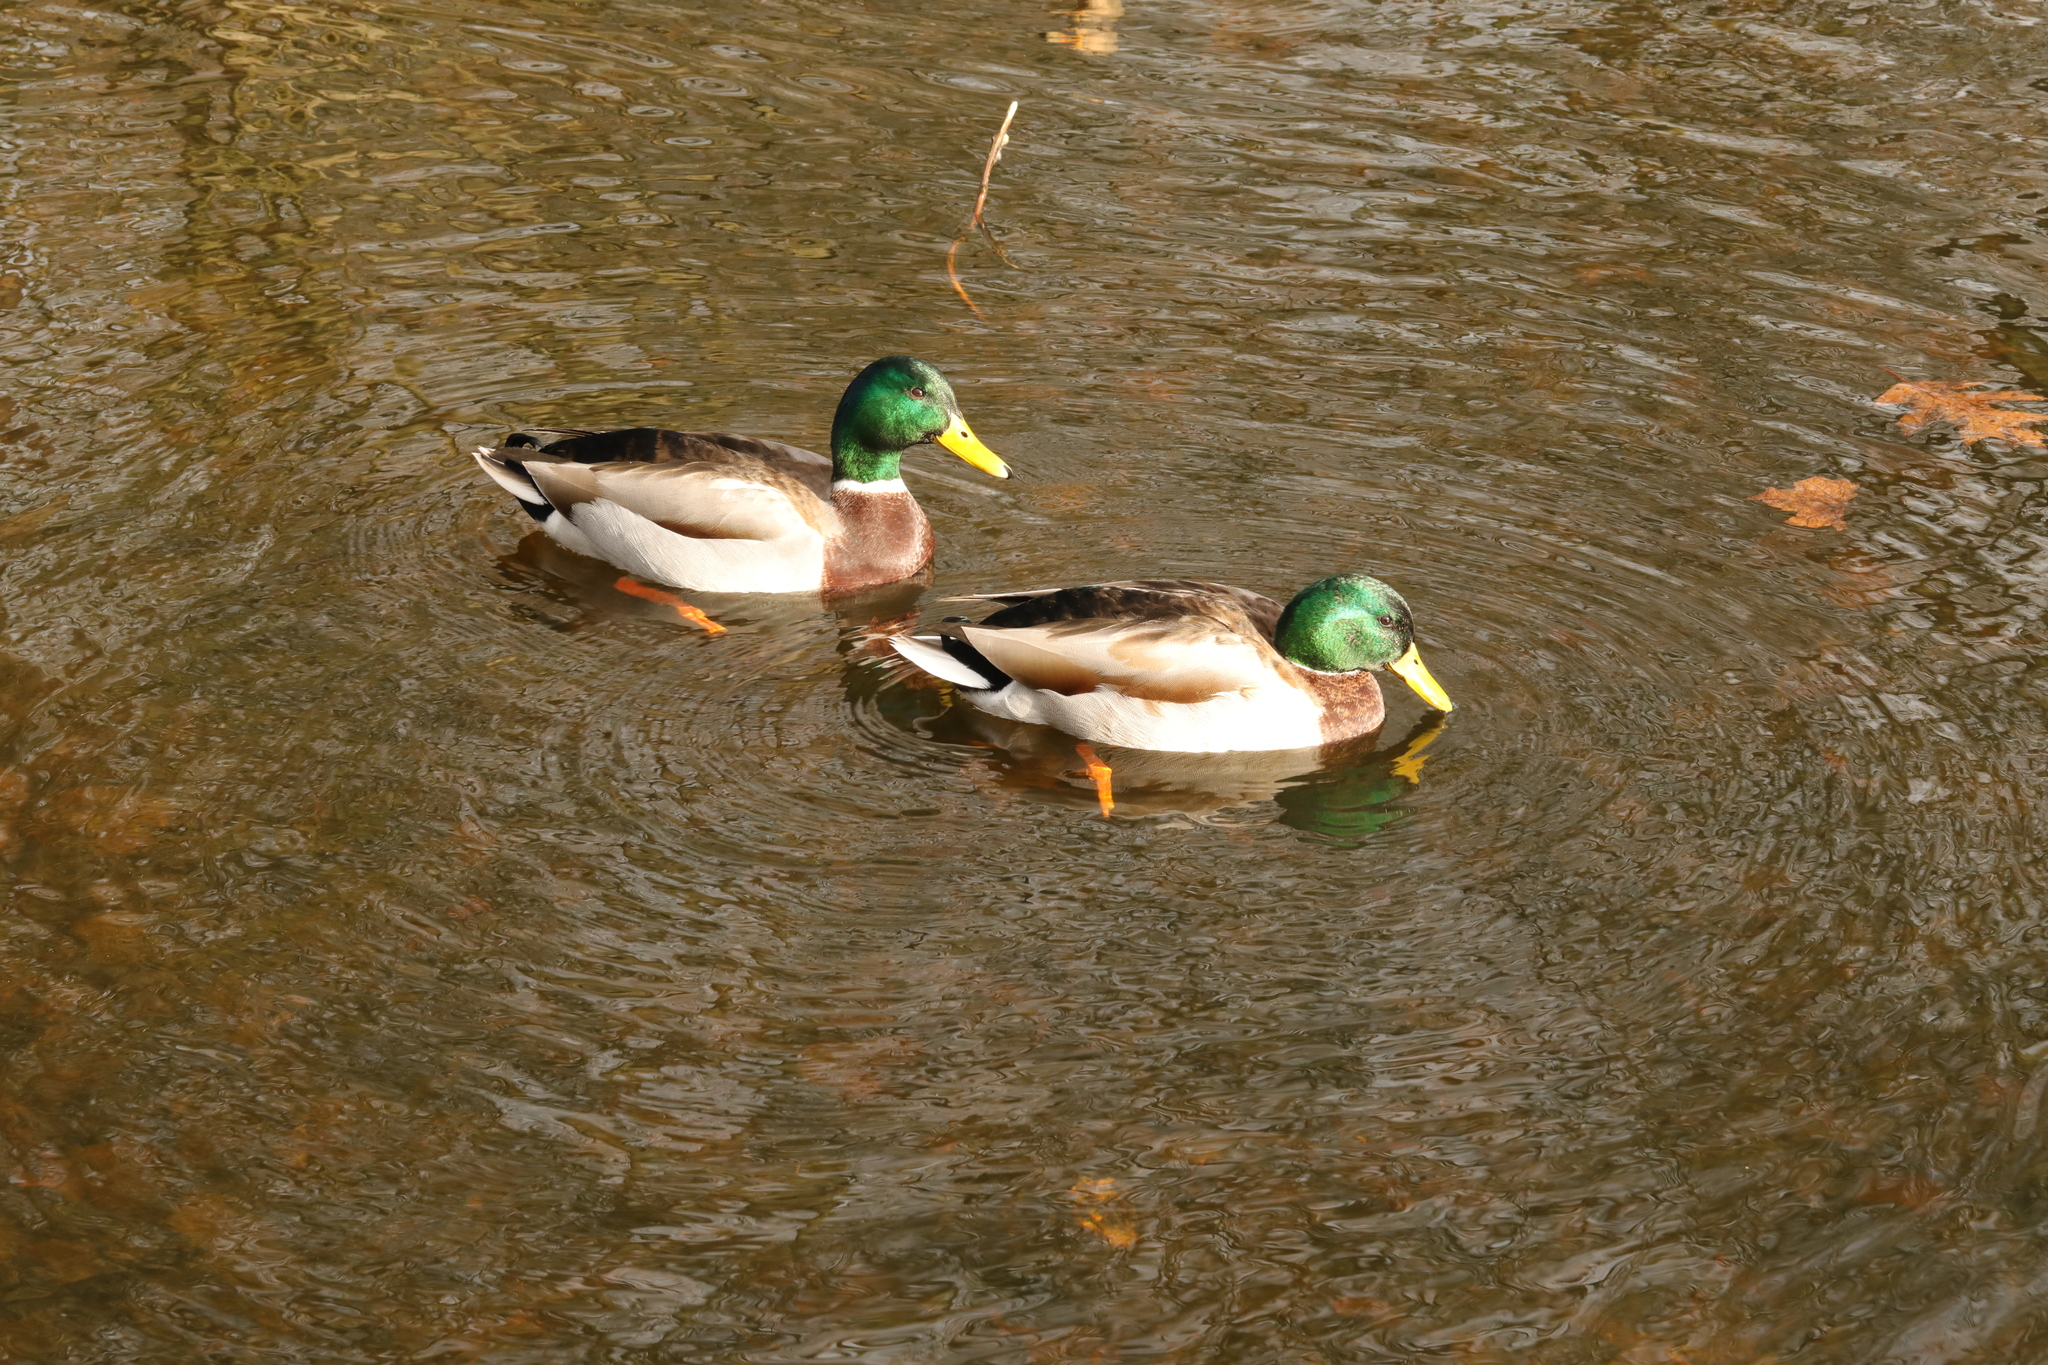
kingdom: Animalia
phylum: Chordata
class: Aves
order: Anseriformes
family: Anatidae
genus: Anas
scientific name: Anas platyrhynchos
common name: Mallard
